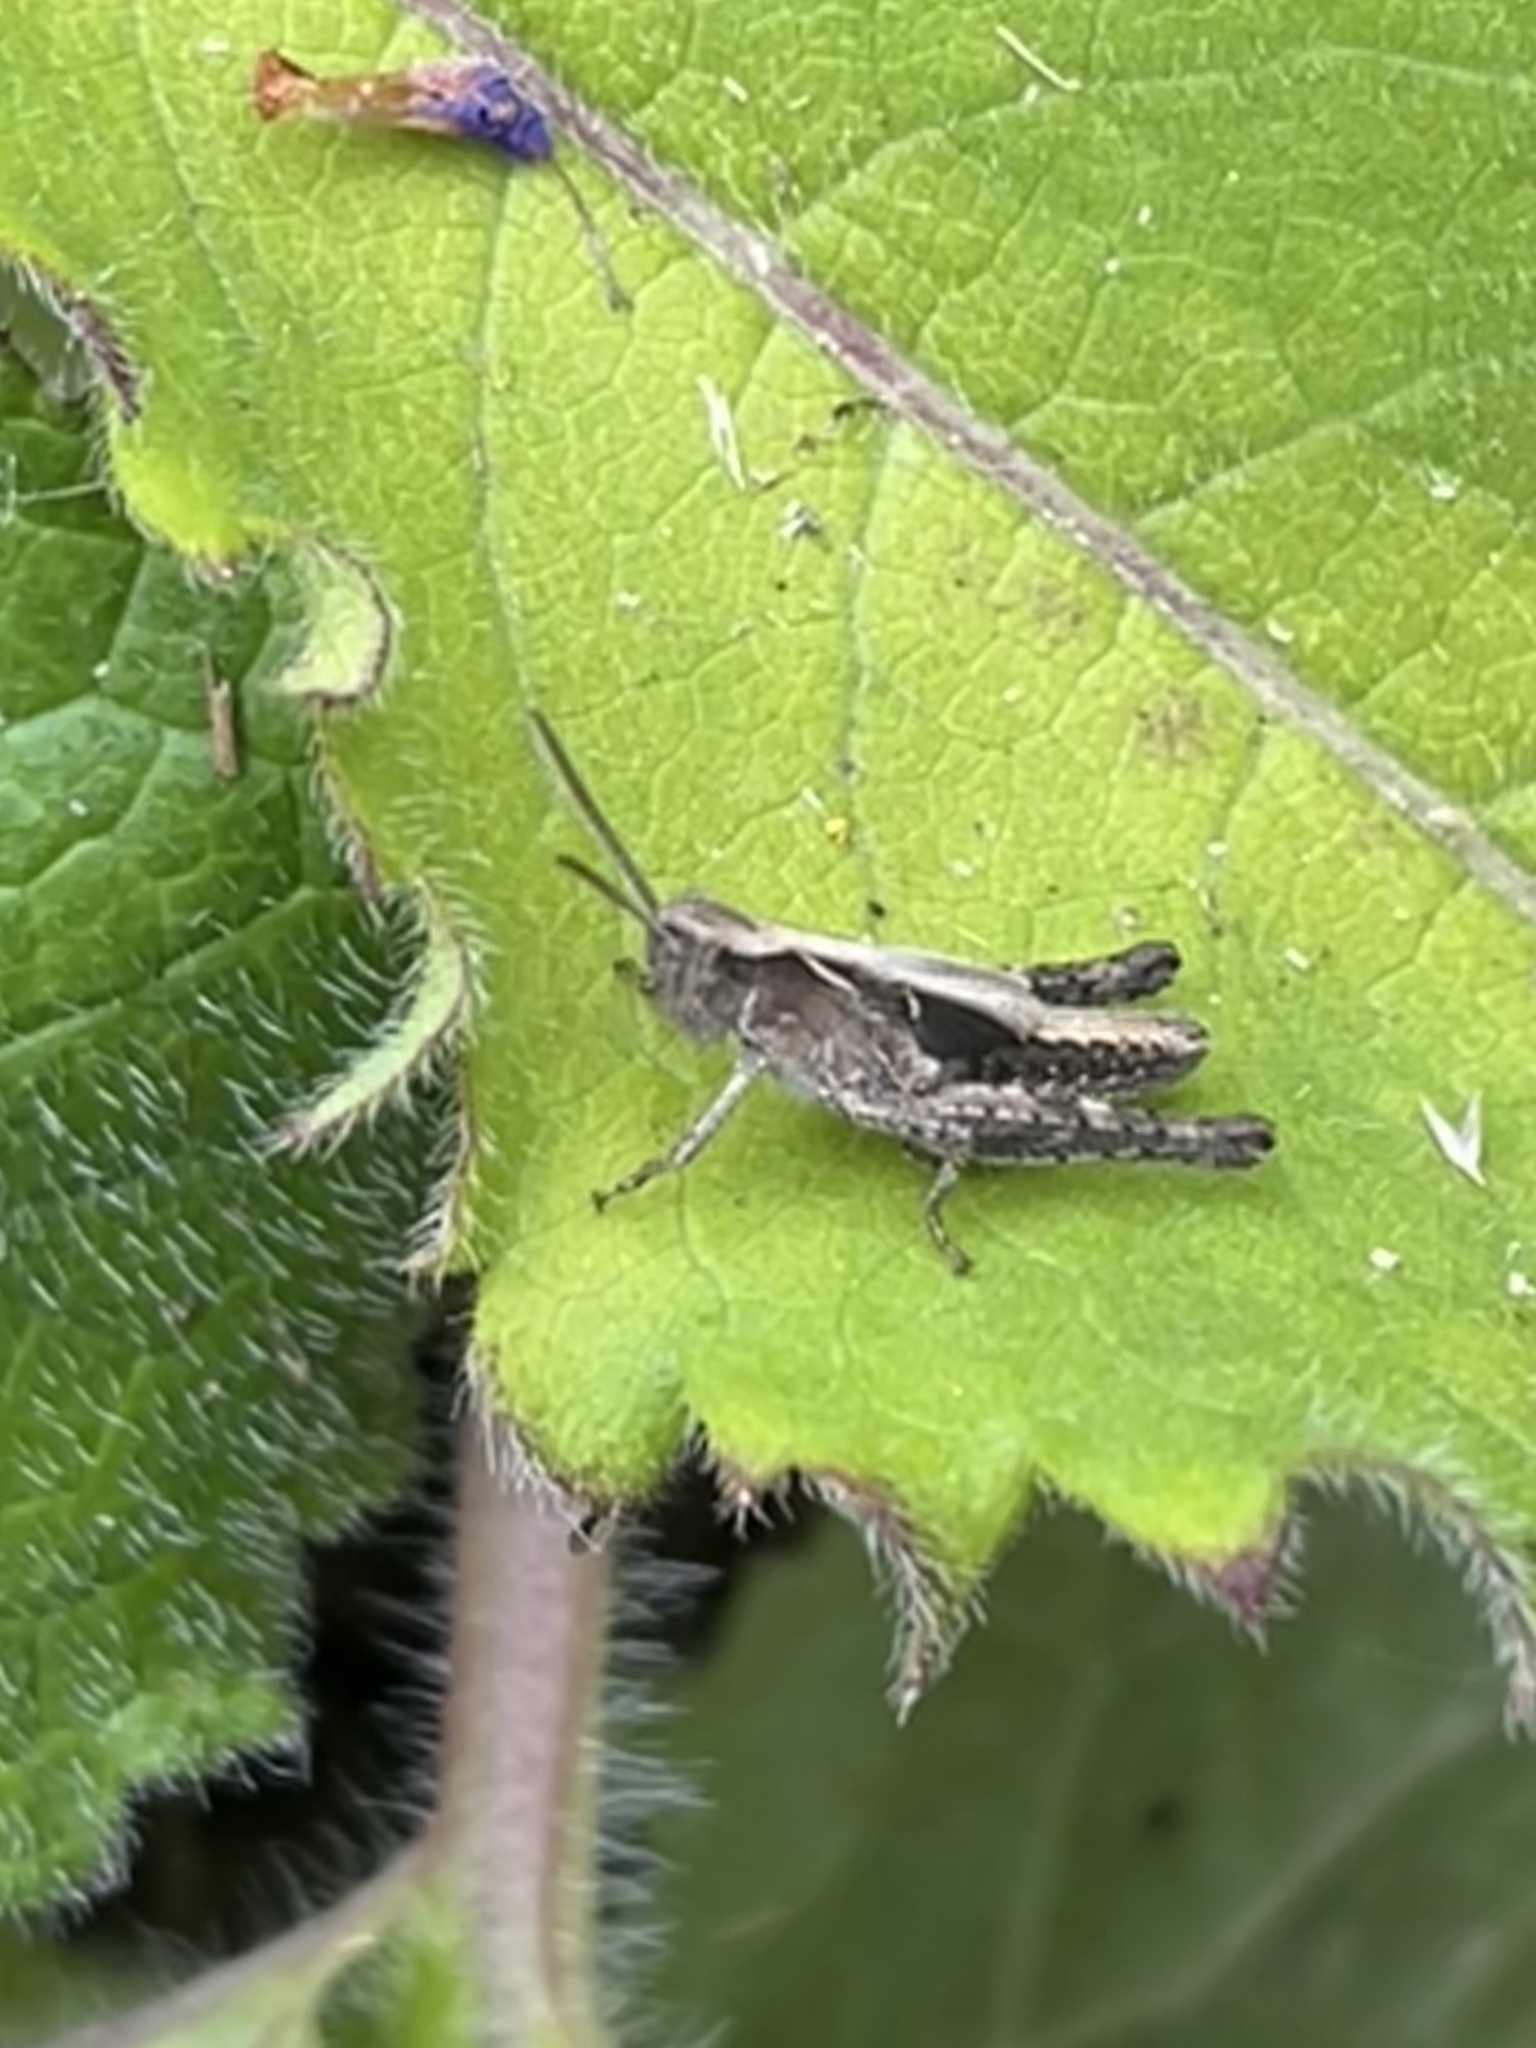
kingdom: Animalia
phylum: Arthropoda
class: Insecta
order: Orthoptera
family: Acrididae
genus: Chorthippus
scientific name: Chorthippus brunneus
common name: Field grasshopper
